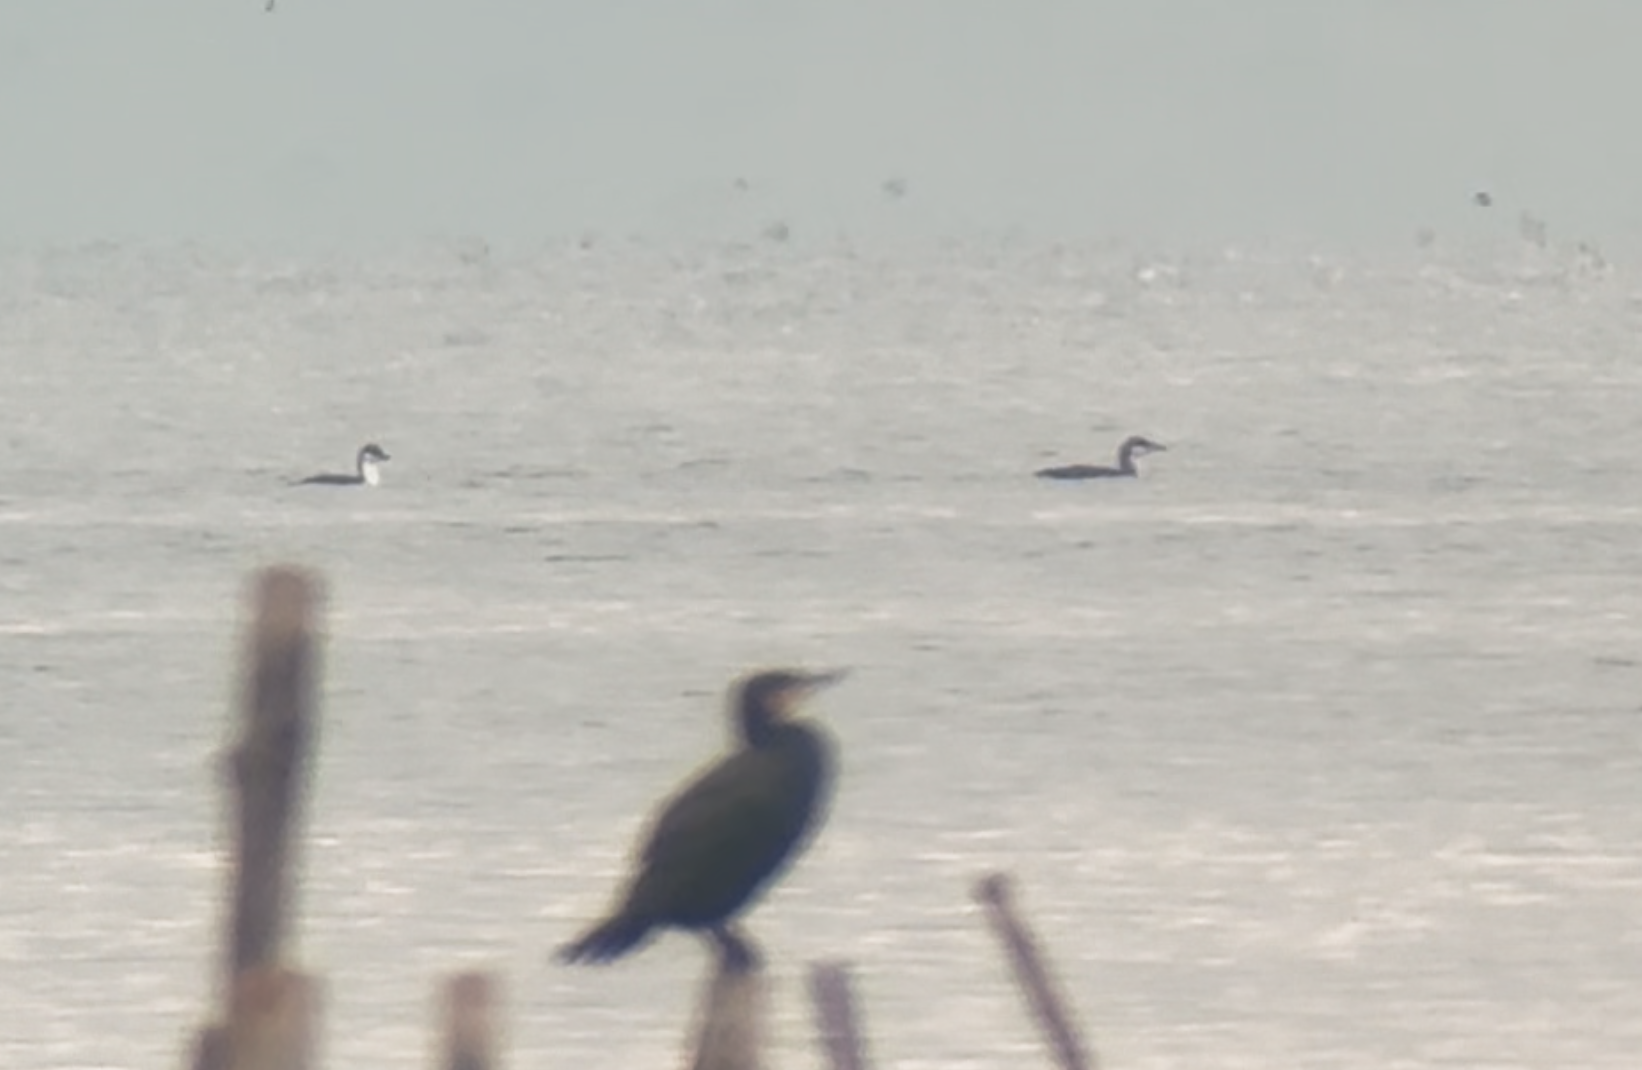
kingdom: Animalia
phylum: Chordata
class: Aves
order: Gaviiformes
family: Gaviidae
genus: Gavia
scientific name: Gavia arctica
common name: Black-throated loon
